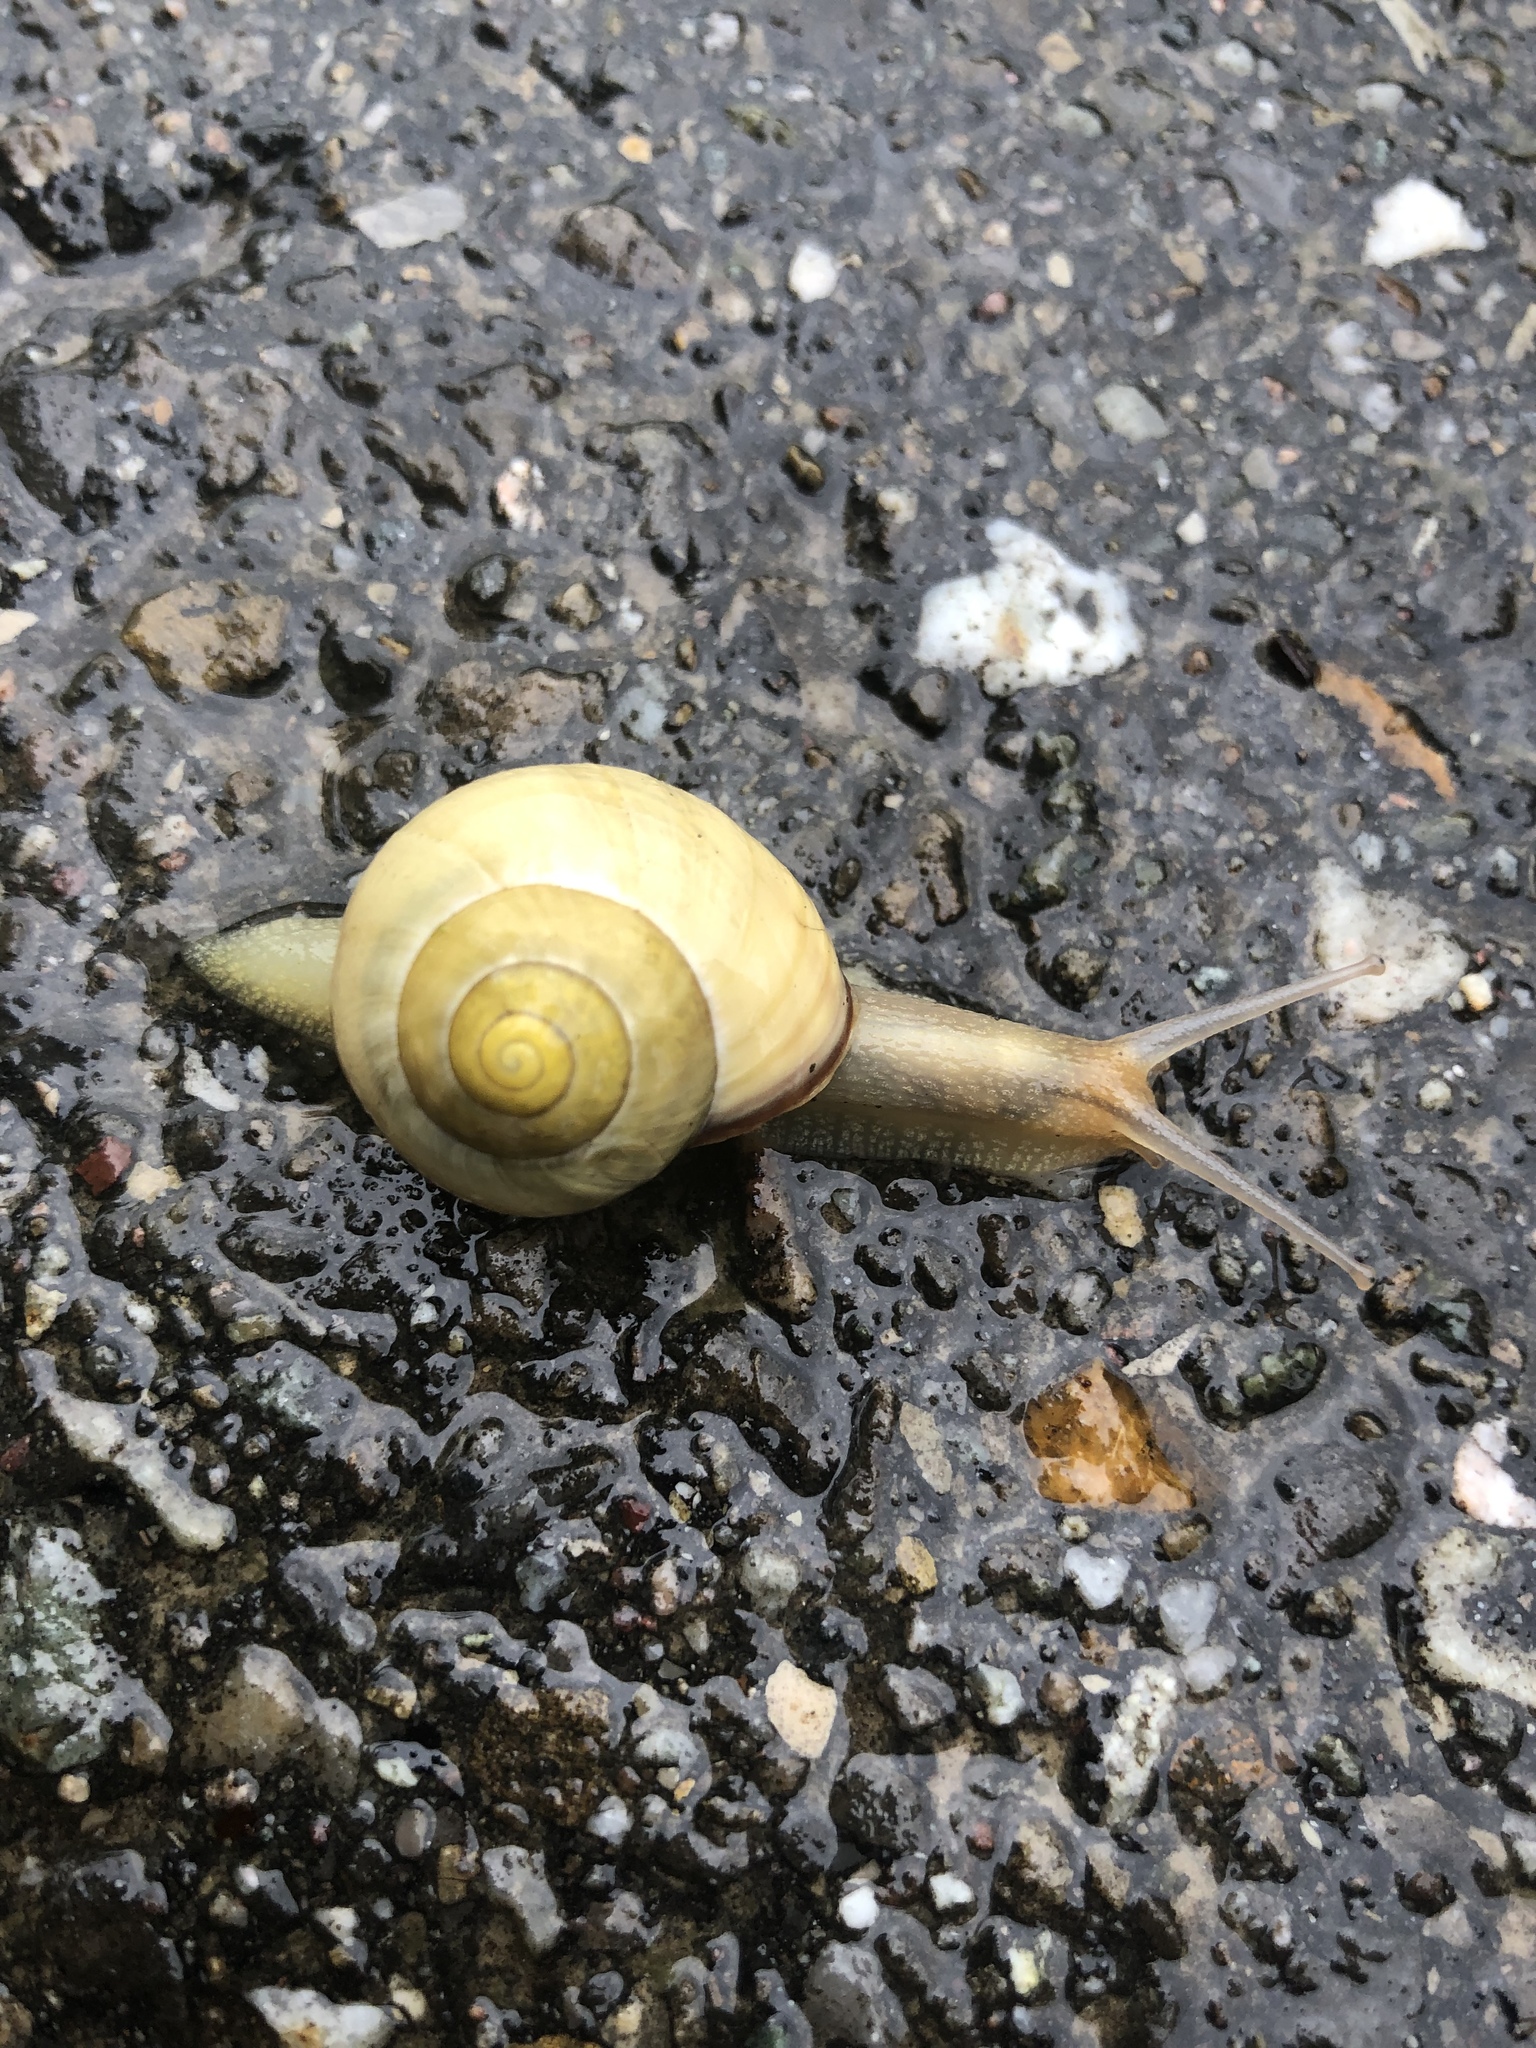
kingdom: Animalia
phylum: Mollusca
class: Gastropoda
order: Stylommatophora
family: Helicidae
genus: Cepaea
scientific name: Cepaea nemoralis
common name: Grovesnail
